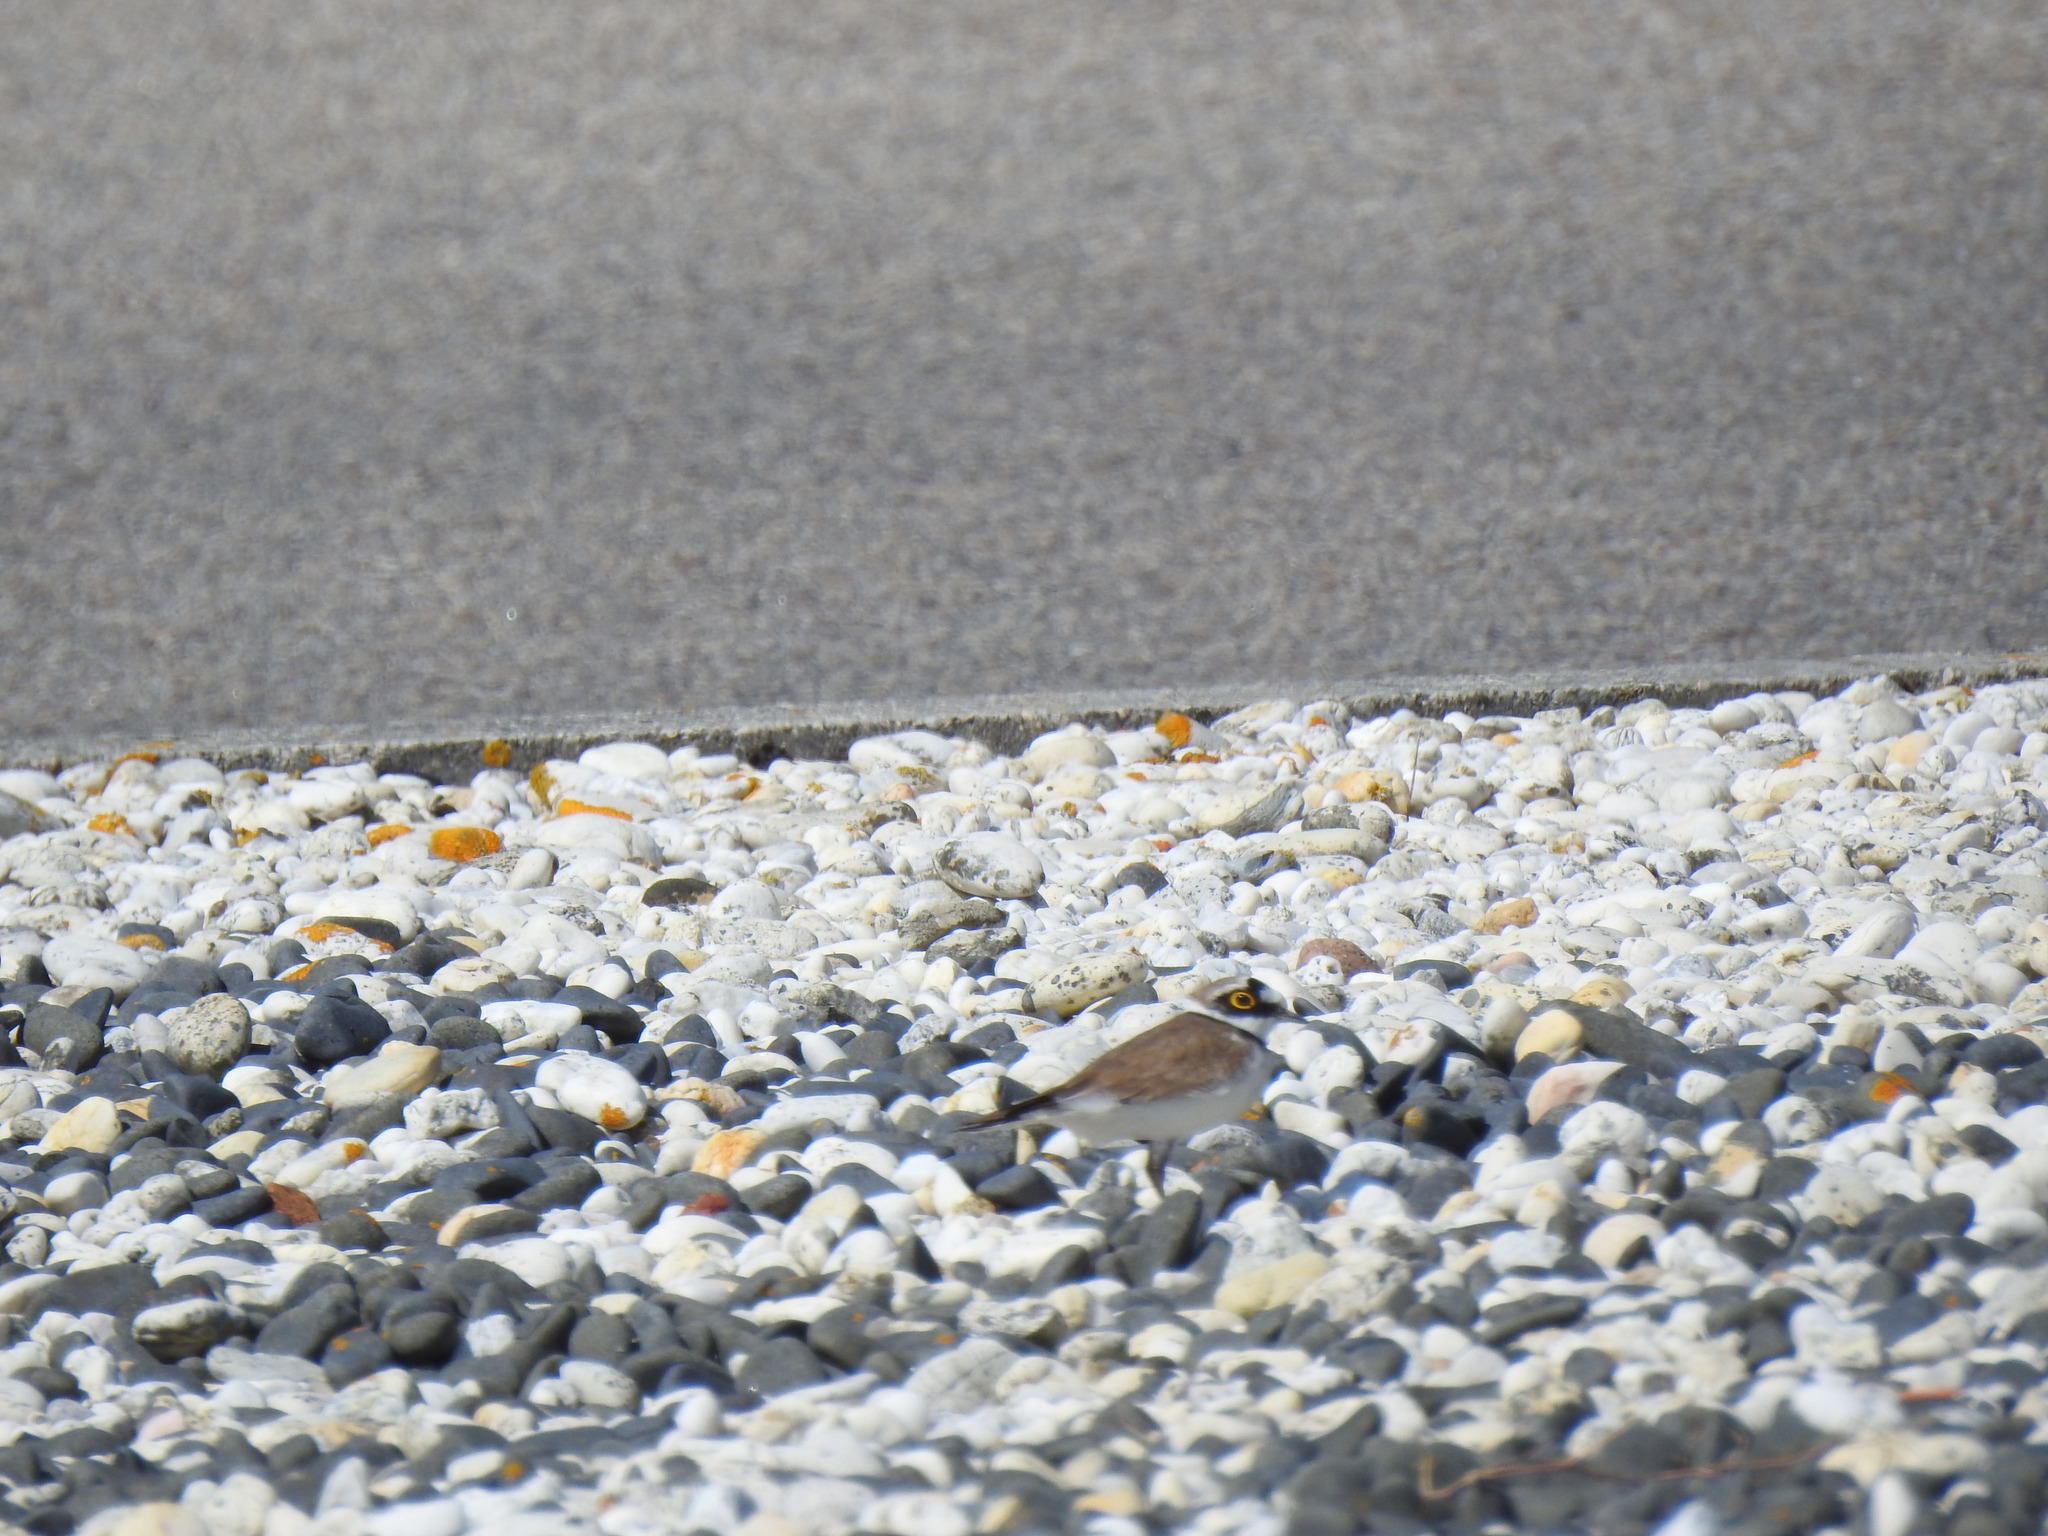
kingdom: Animalia
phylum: Chordata
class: Aves
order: Charadriiformes
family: Charadriidae
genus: Charadrius
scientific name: Charadrius dubius
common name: Little ringed plover
